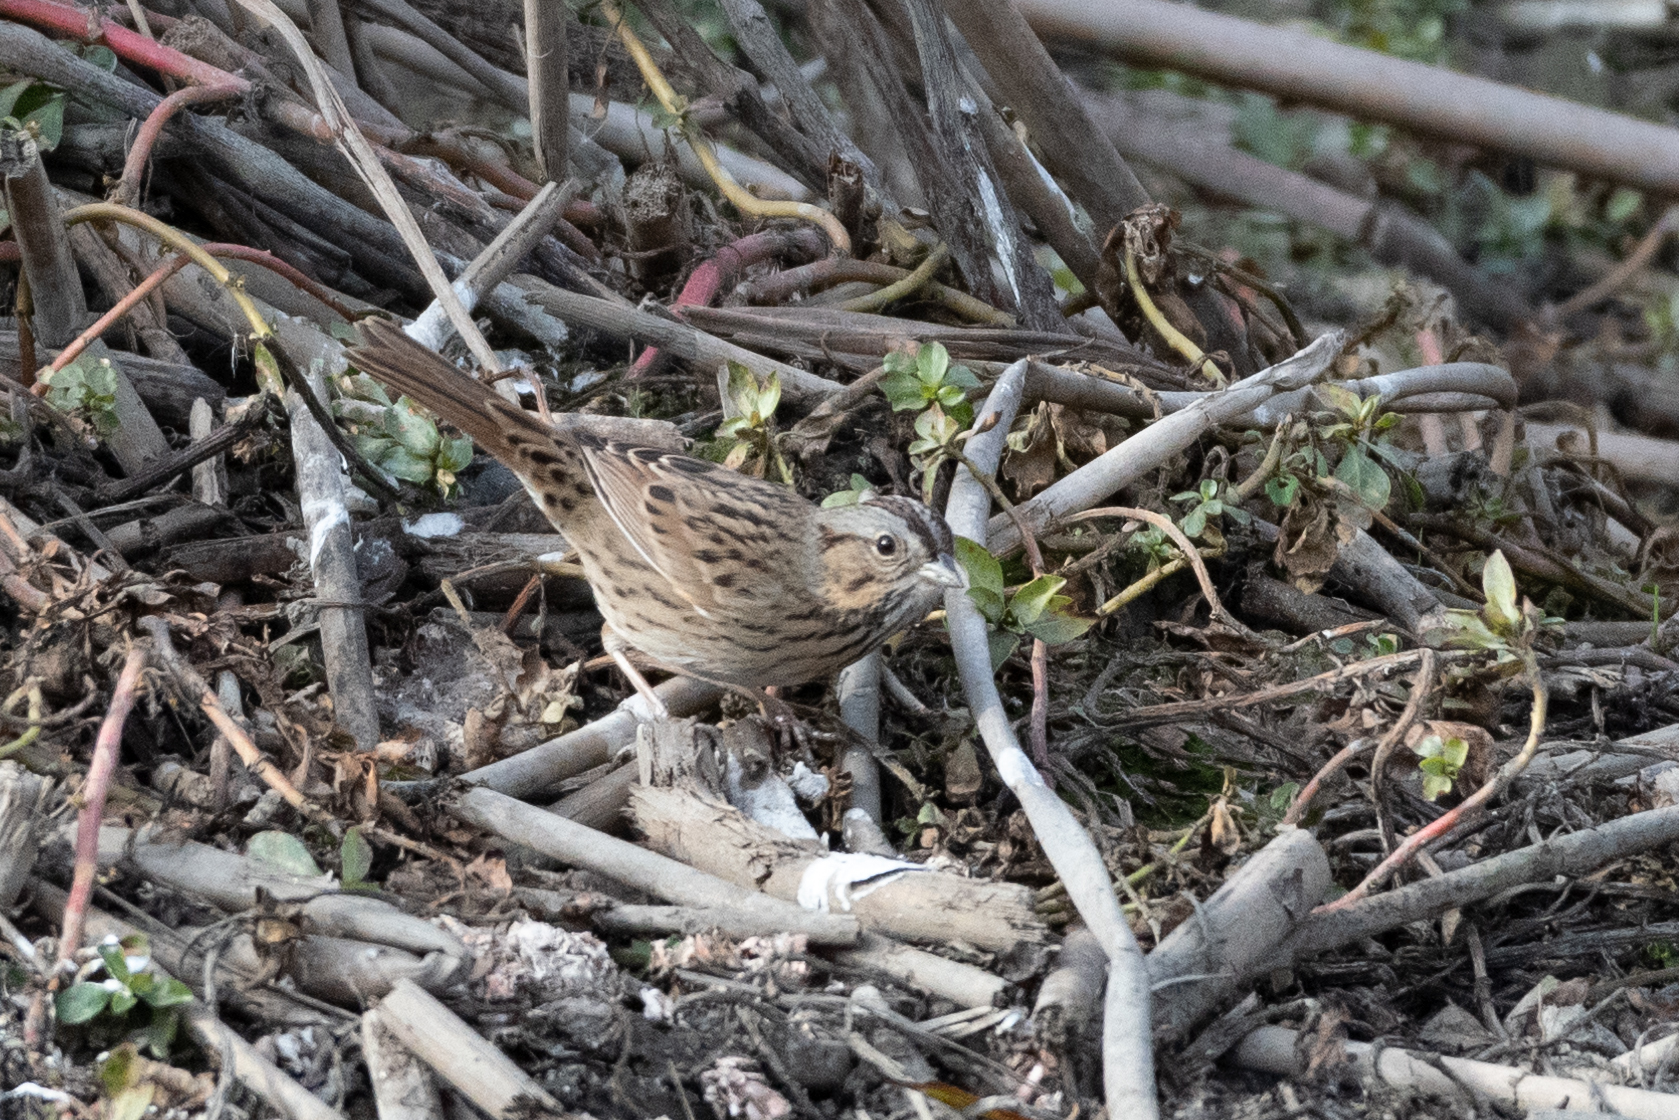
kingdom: Animalia
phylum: Chordata
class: Aves
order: Passeriformes
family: Passerellidae
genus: Melospiza
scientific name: Melospiza lincolnii
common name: Lincoln's sparrow
